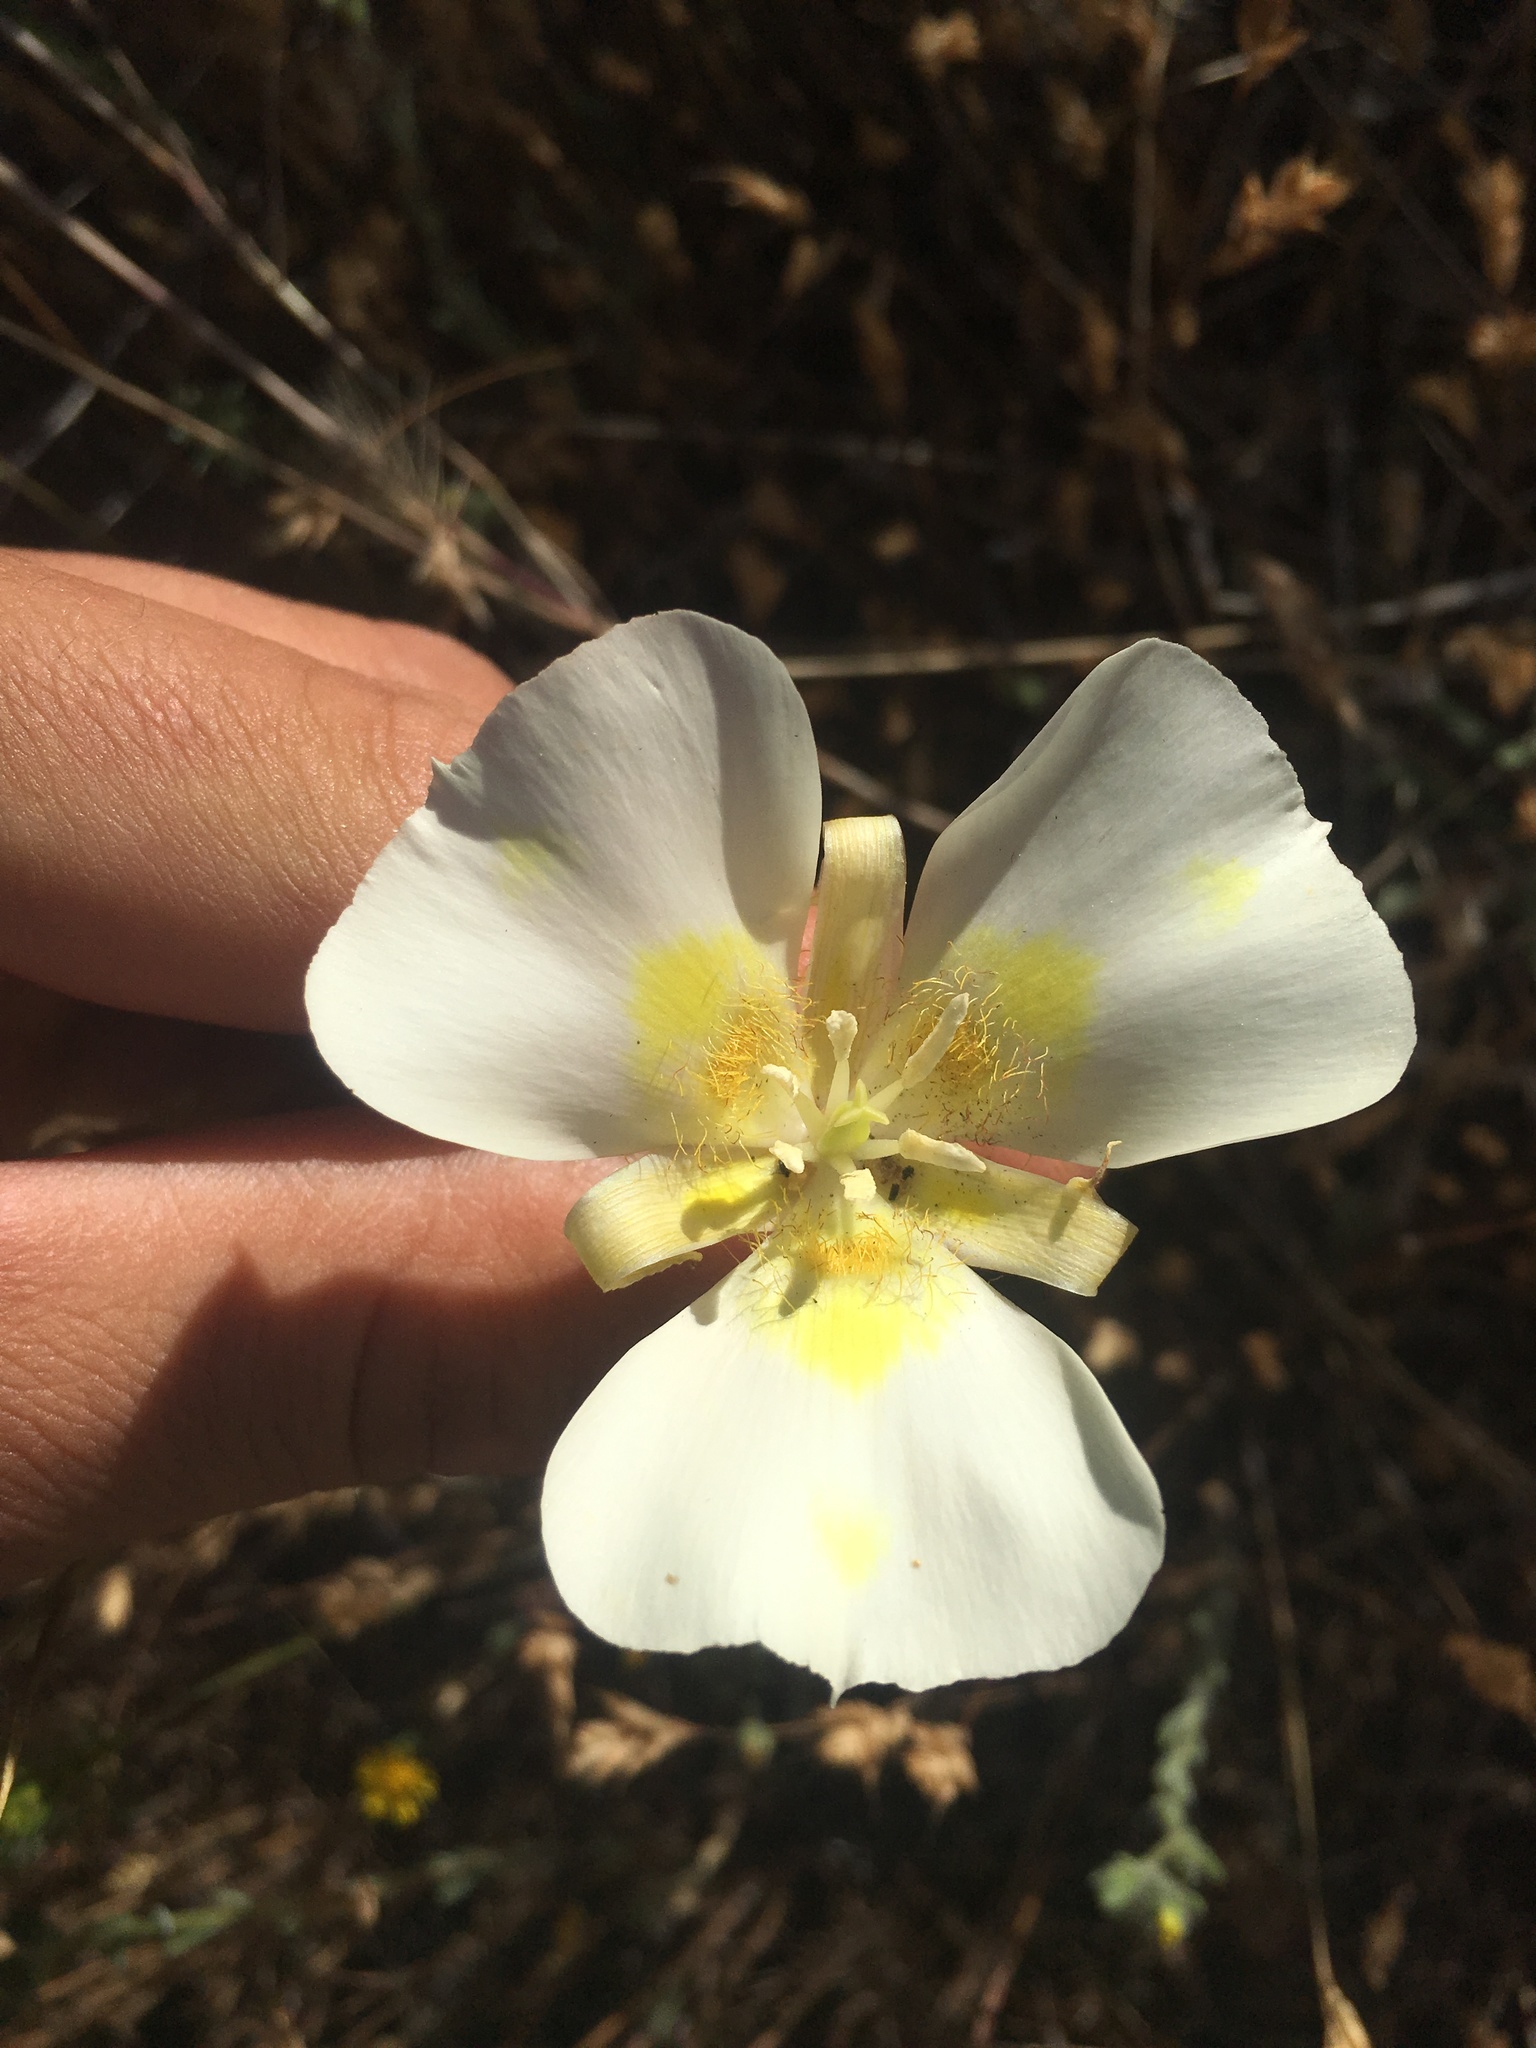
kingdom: Plantae
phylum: Tracheophyta
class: Liliopsida
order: Liliales
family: Liliaceae
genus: Calochortus
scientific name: Calochortus venustus
